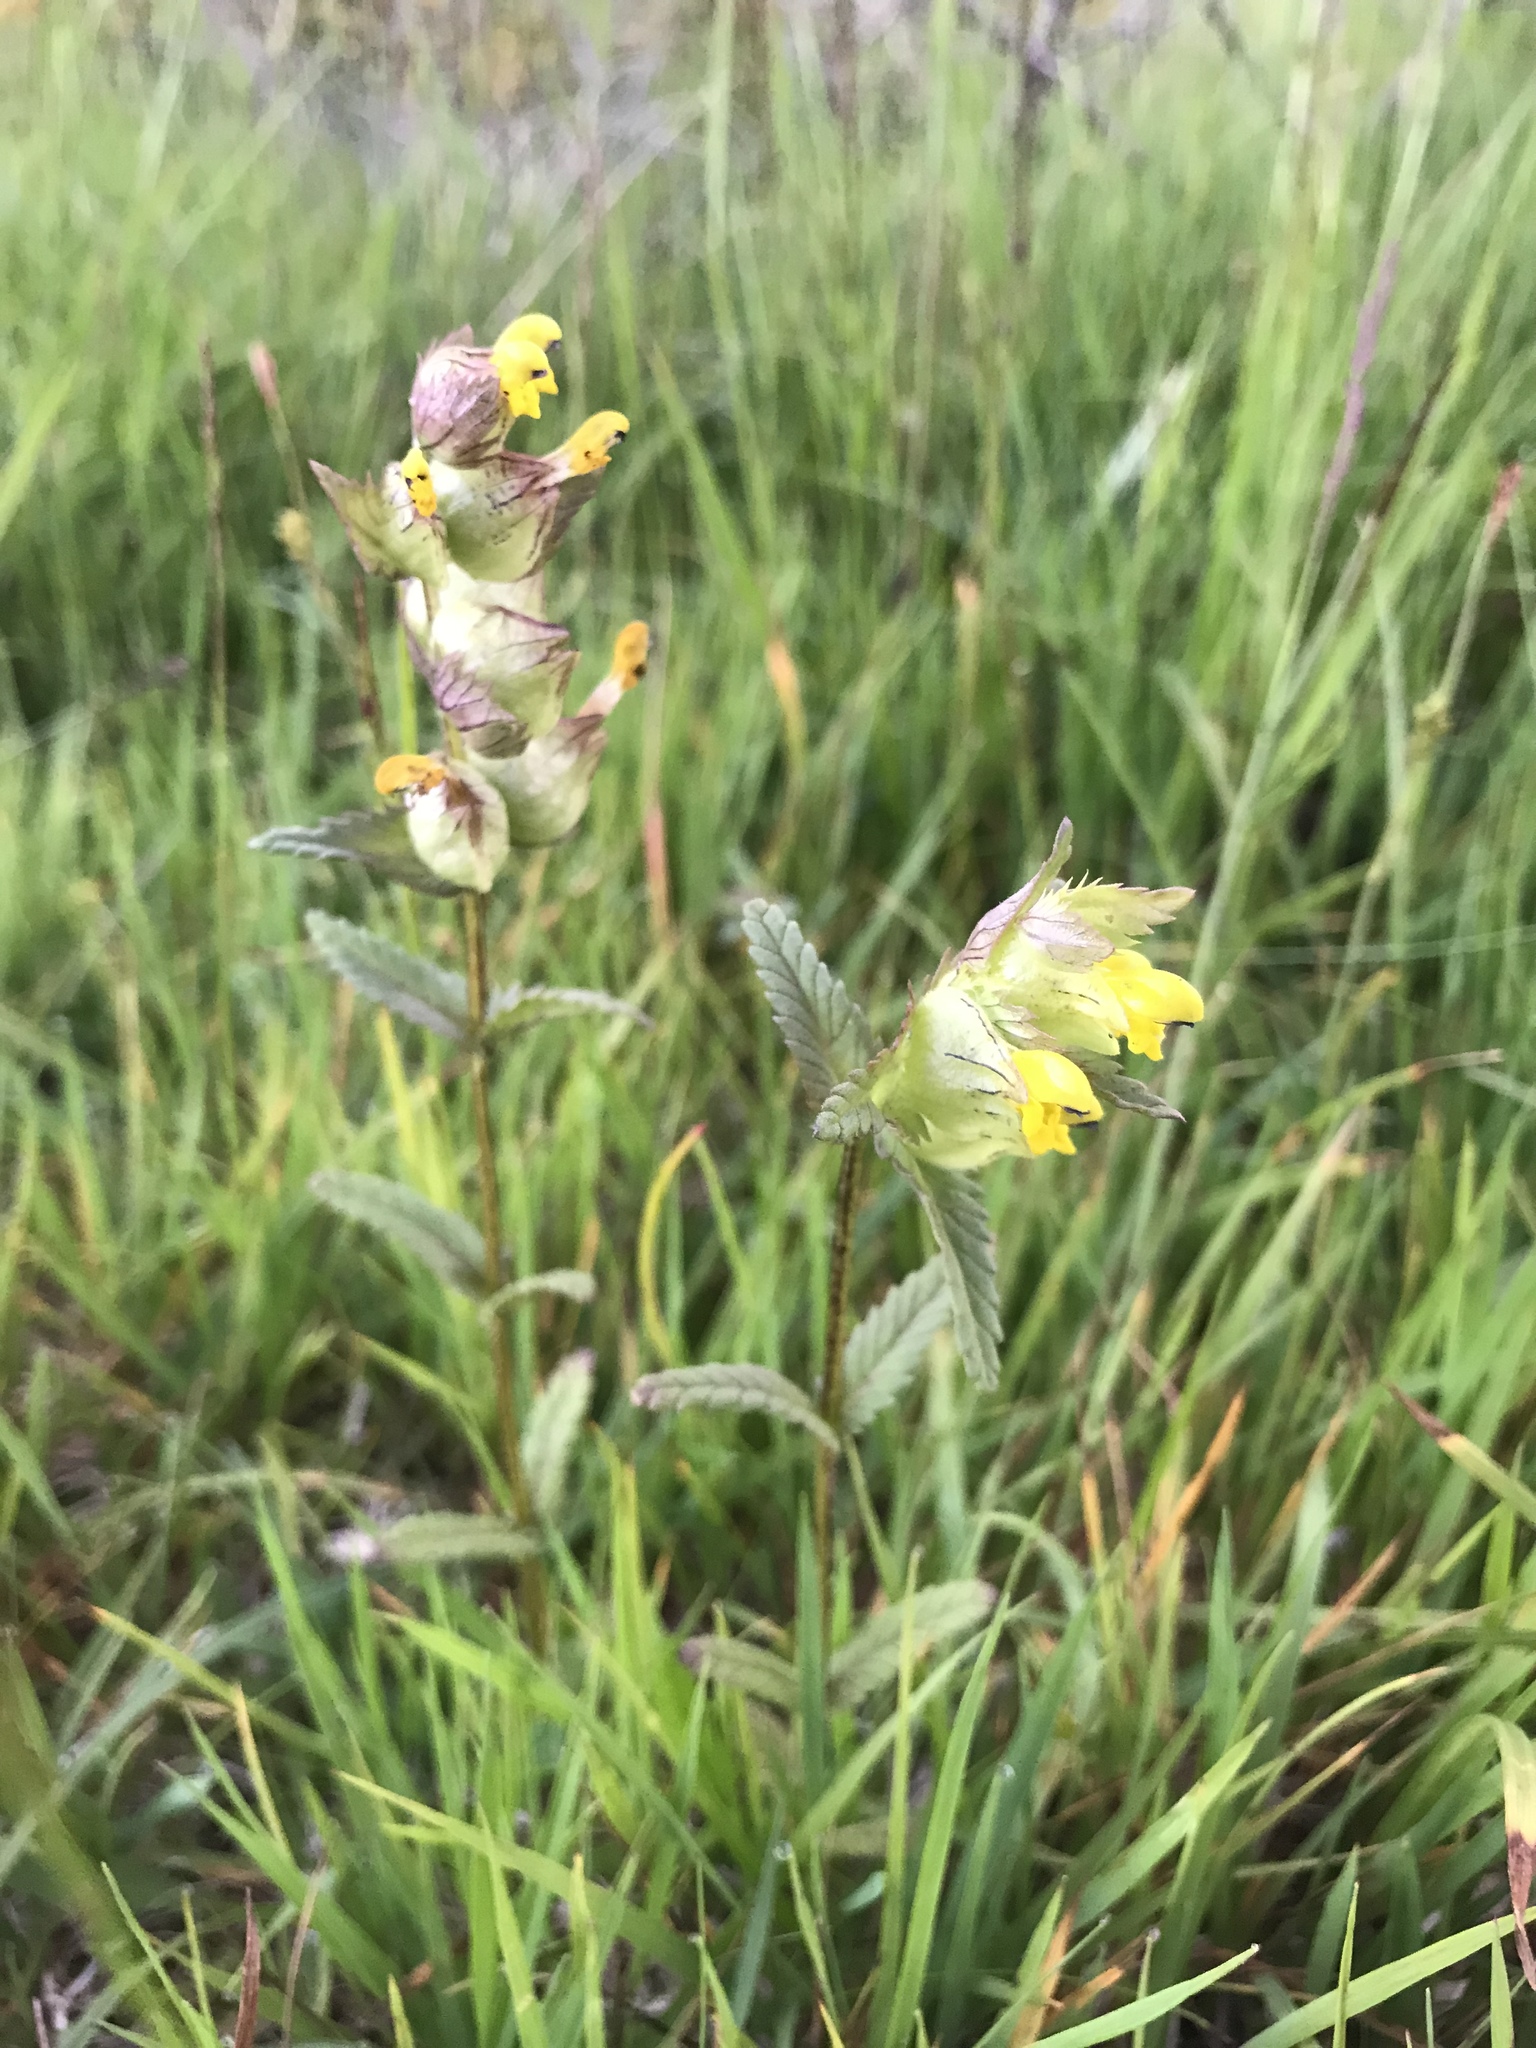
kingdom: Plantae
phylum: Tracheophyta
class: Magnoliopsida
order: Lamiales
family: Orobanchaceae
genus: Rhinanthus
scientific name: Rhinanthus minor
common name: Yellow-rattle
